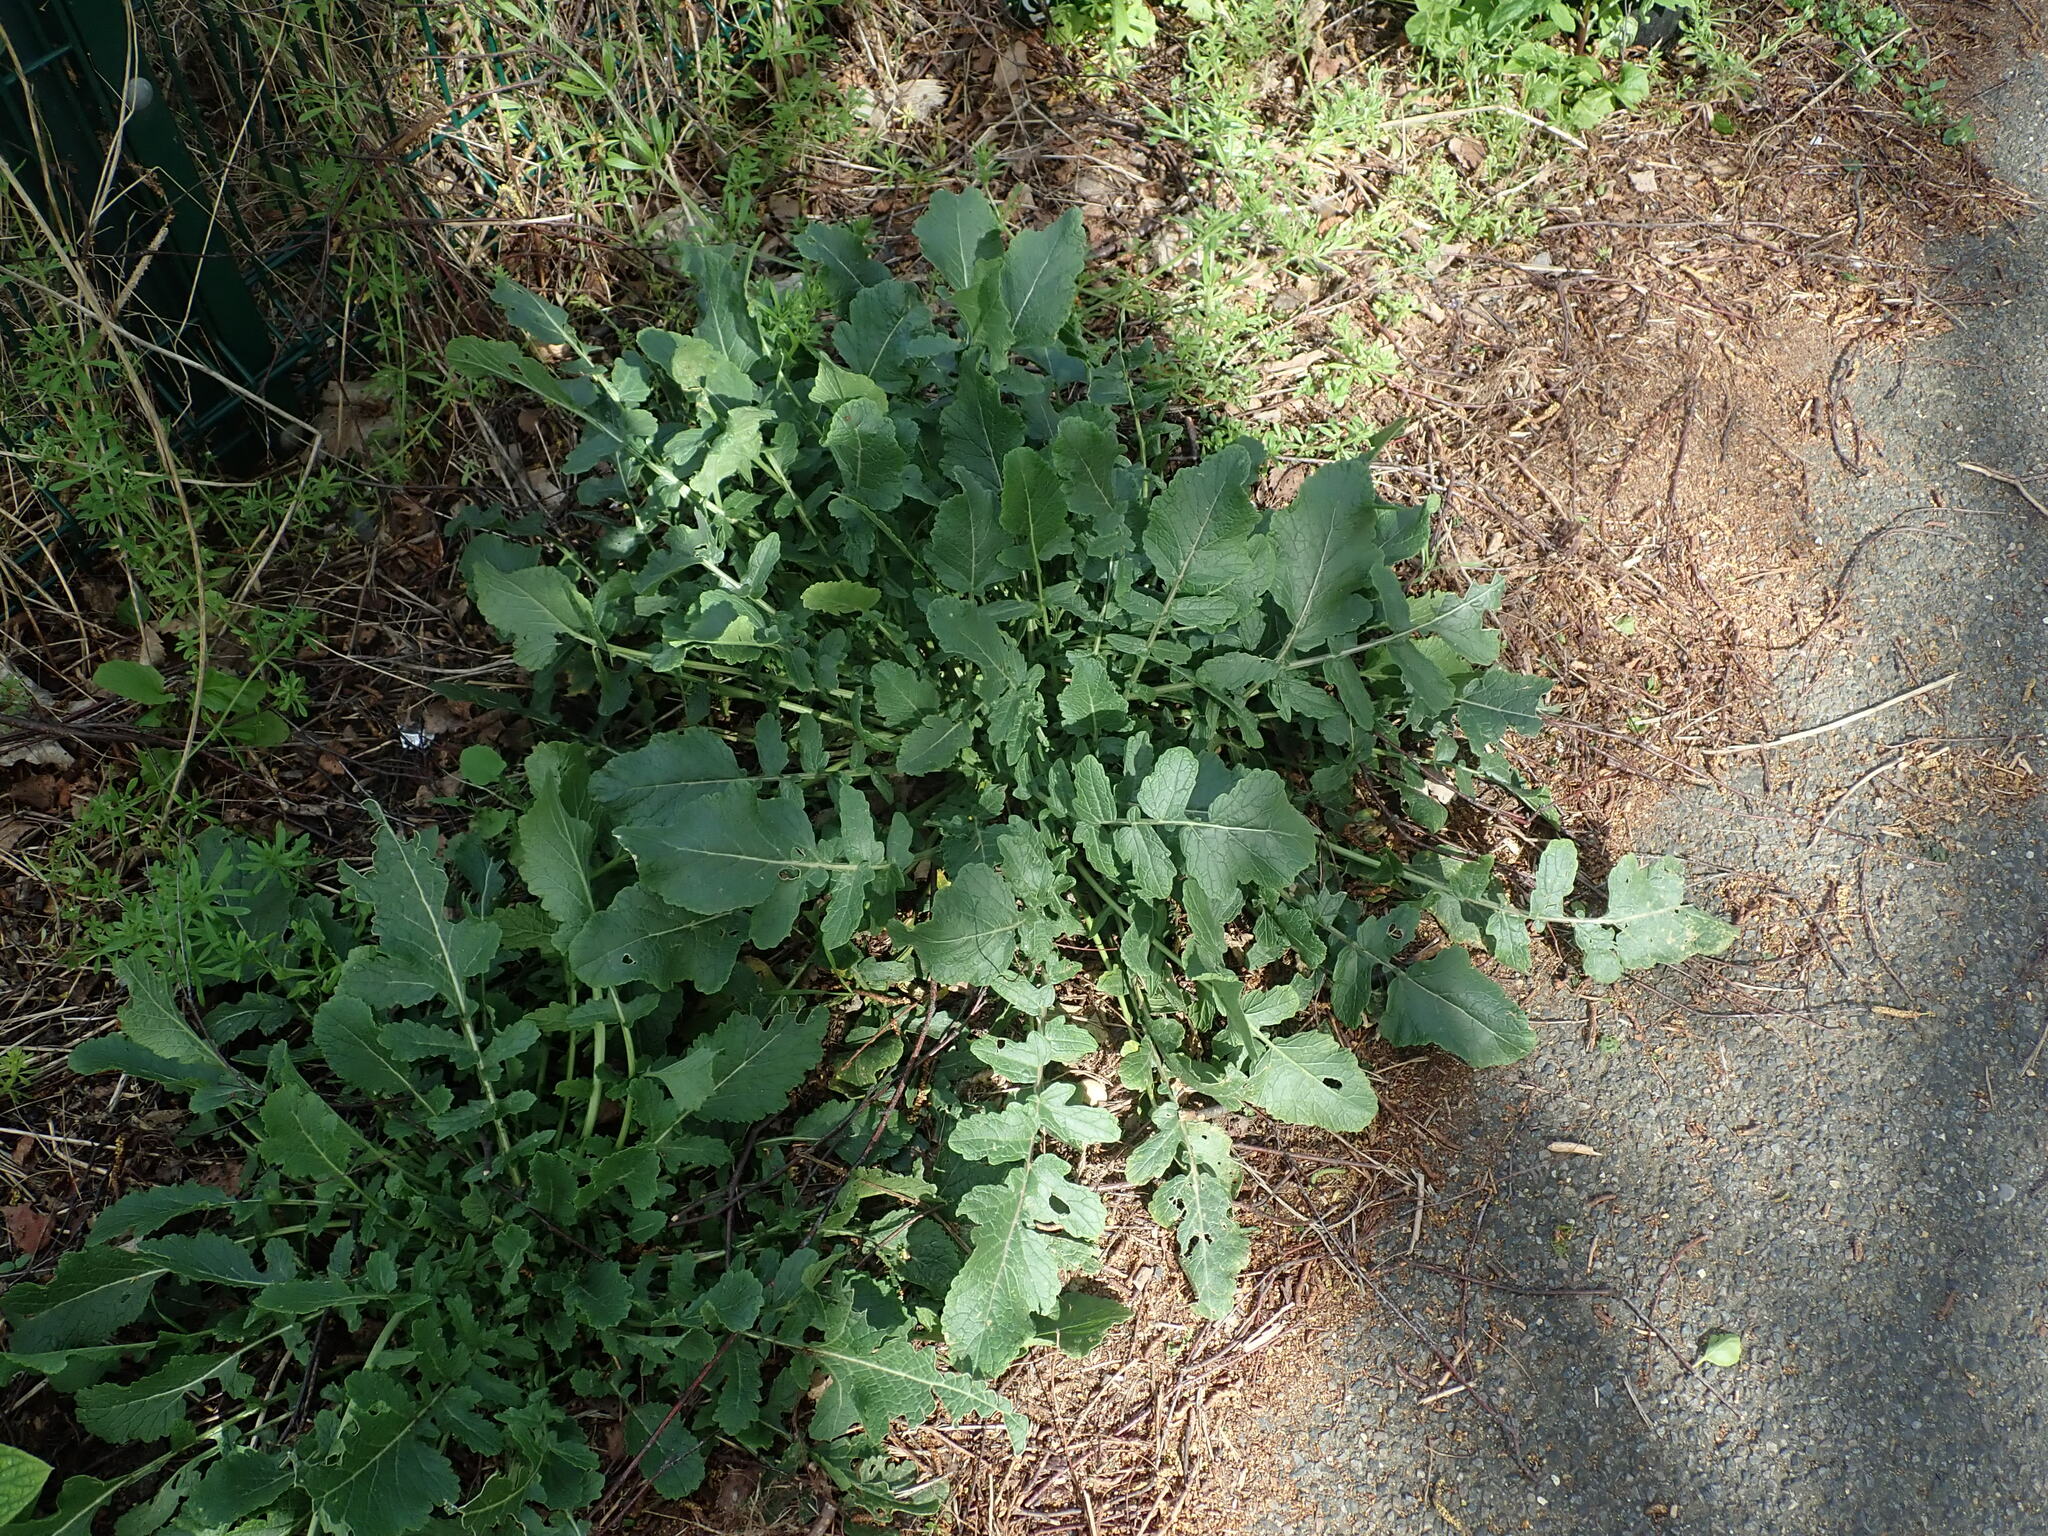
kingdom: Plantae
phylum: Tracheophyta
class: Magnoliopsida
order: Brassicales
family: Brassicaceae
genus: Hirschfeldia
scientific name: Hirschfeldia incana
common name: Hoary mustard
